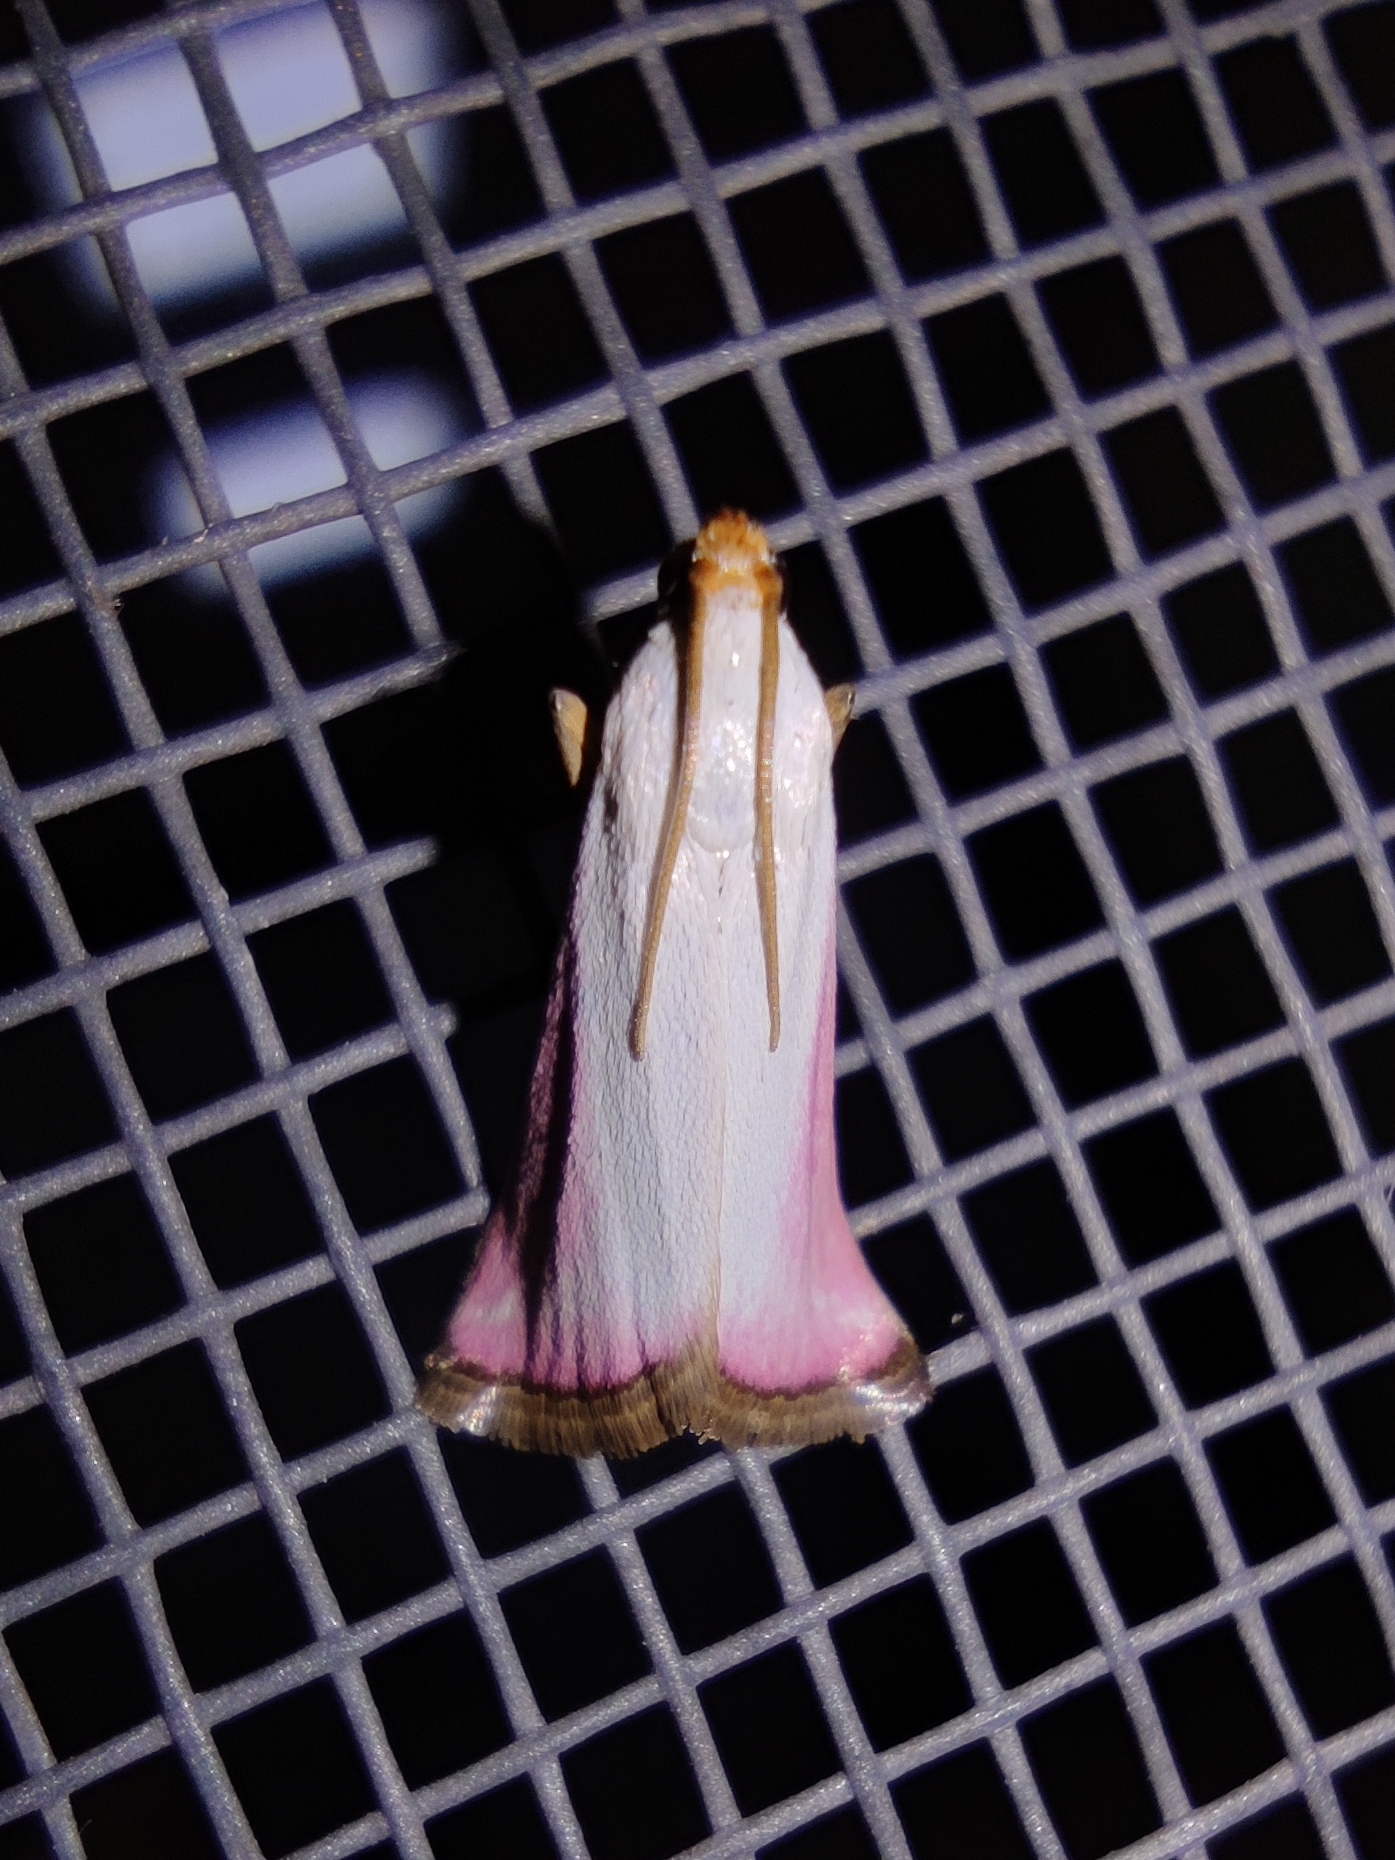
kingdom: Animalia
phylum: Arthropoda
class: Insecta
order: Lepidoptera
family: Pyralidae
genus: Eurhodope
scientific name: Eurhodope rosella
